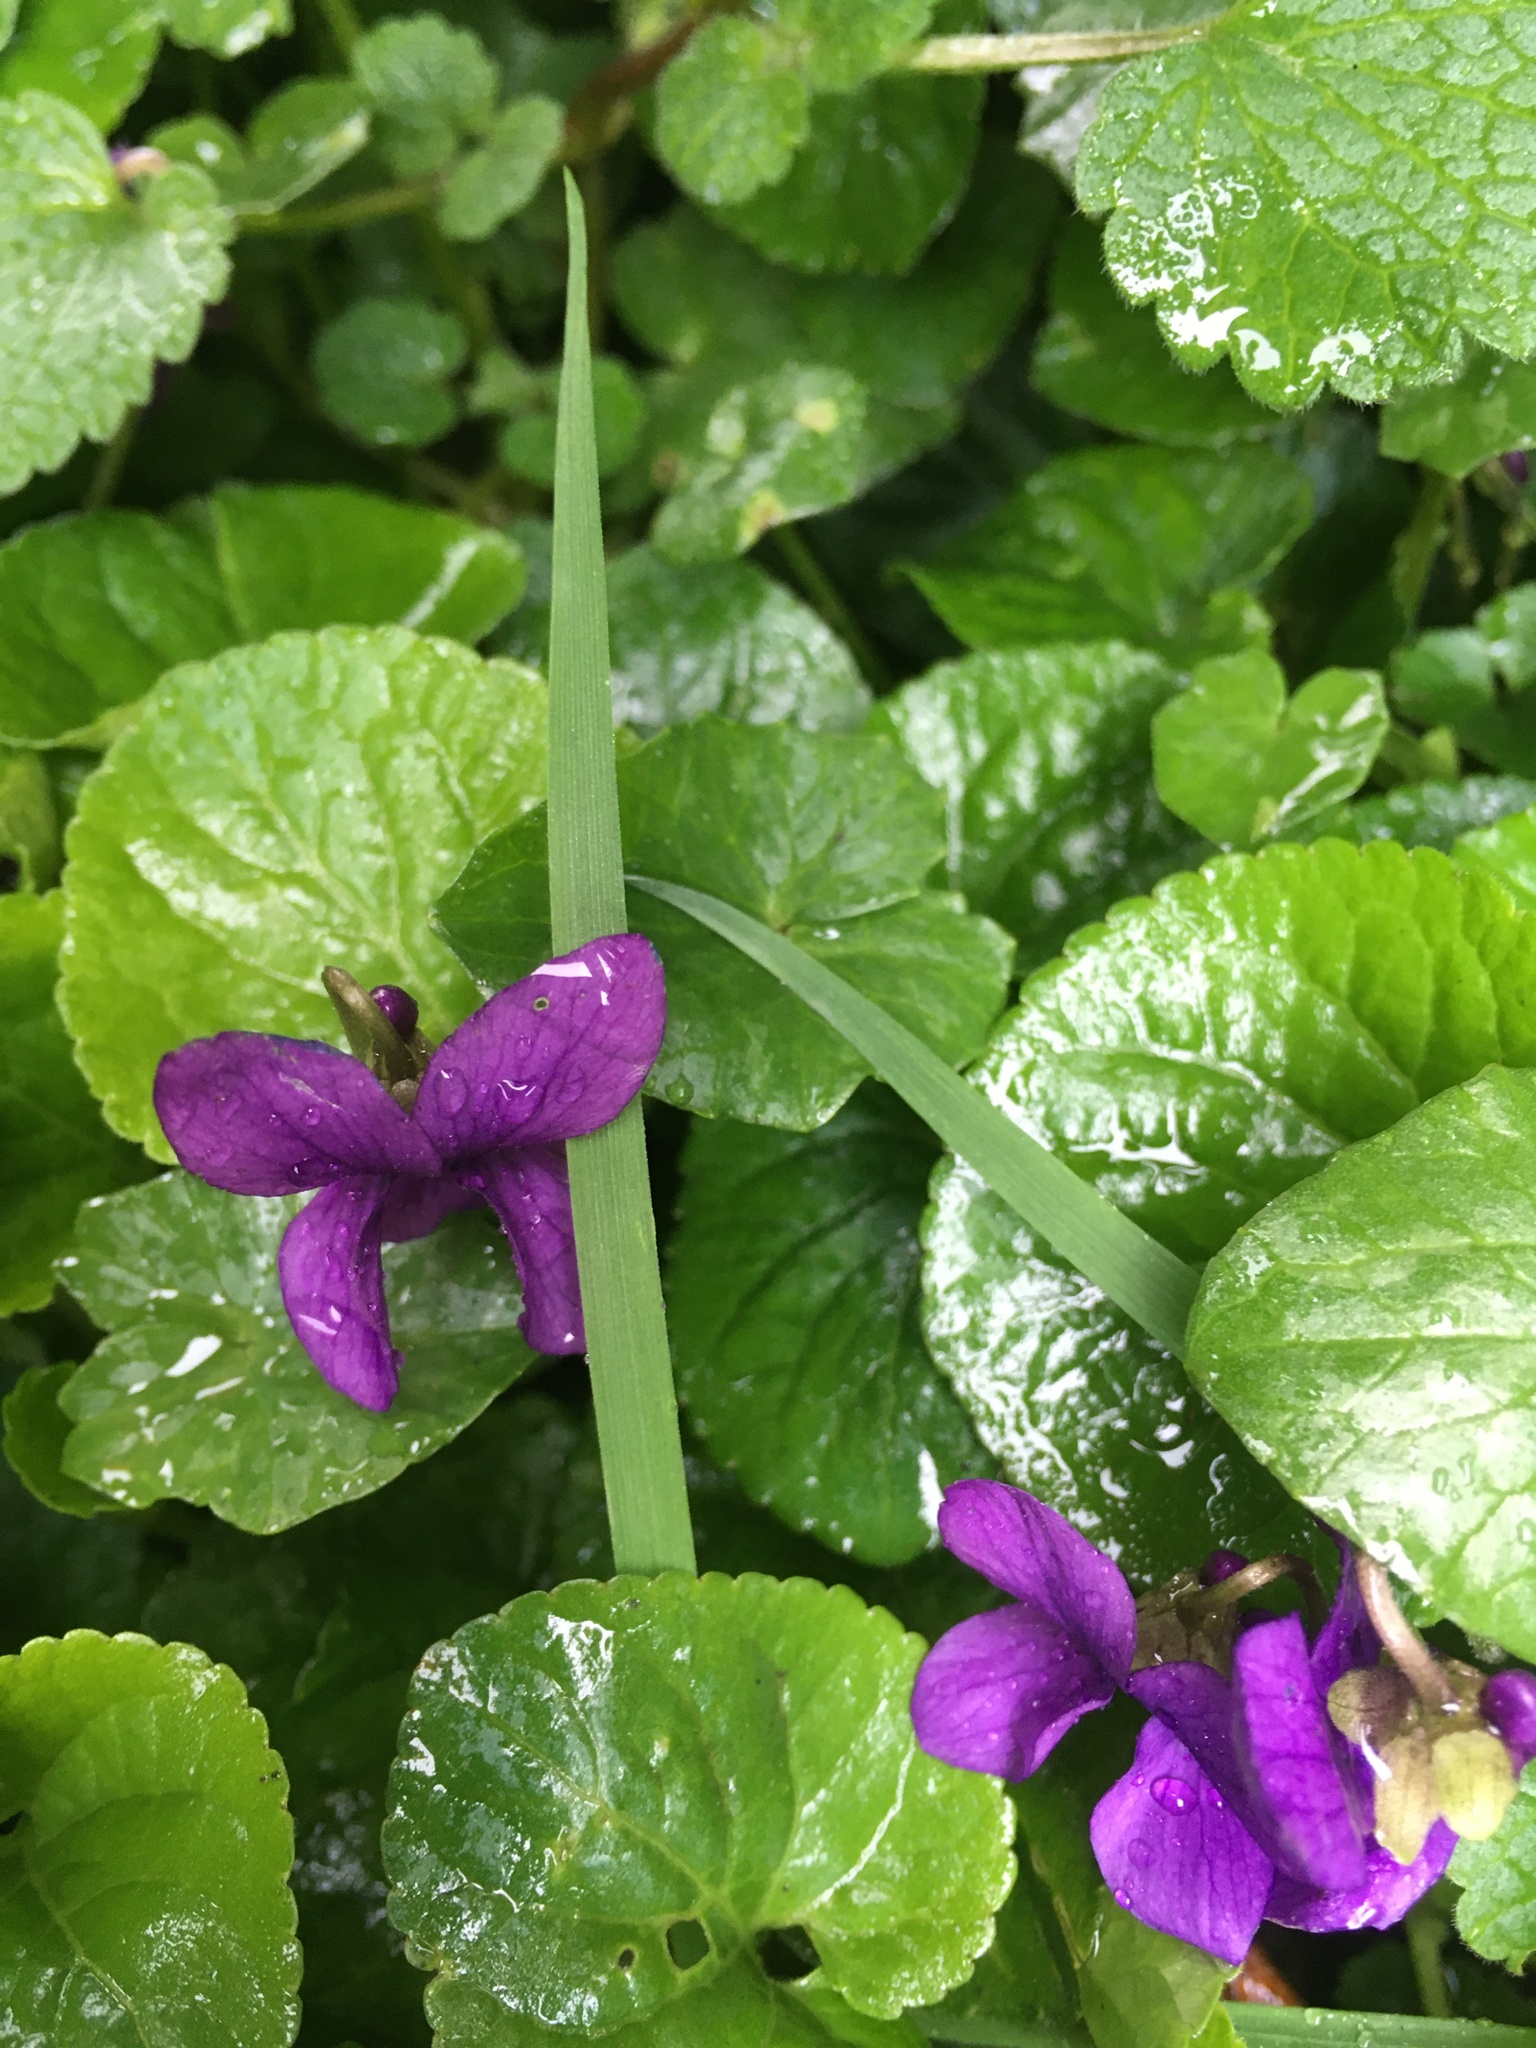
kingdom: Plantae
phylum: Tracheophyta
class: Magnoliopsida
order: Malpighiales
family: Violaceae
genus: Viola
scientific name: Viola odorata
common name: Sweet violet
